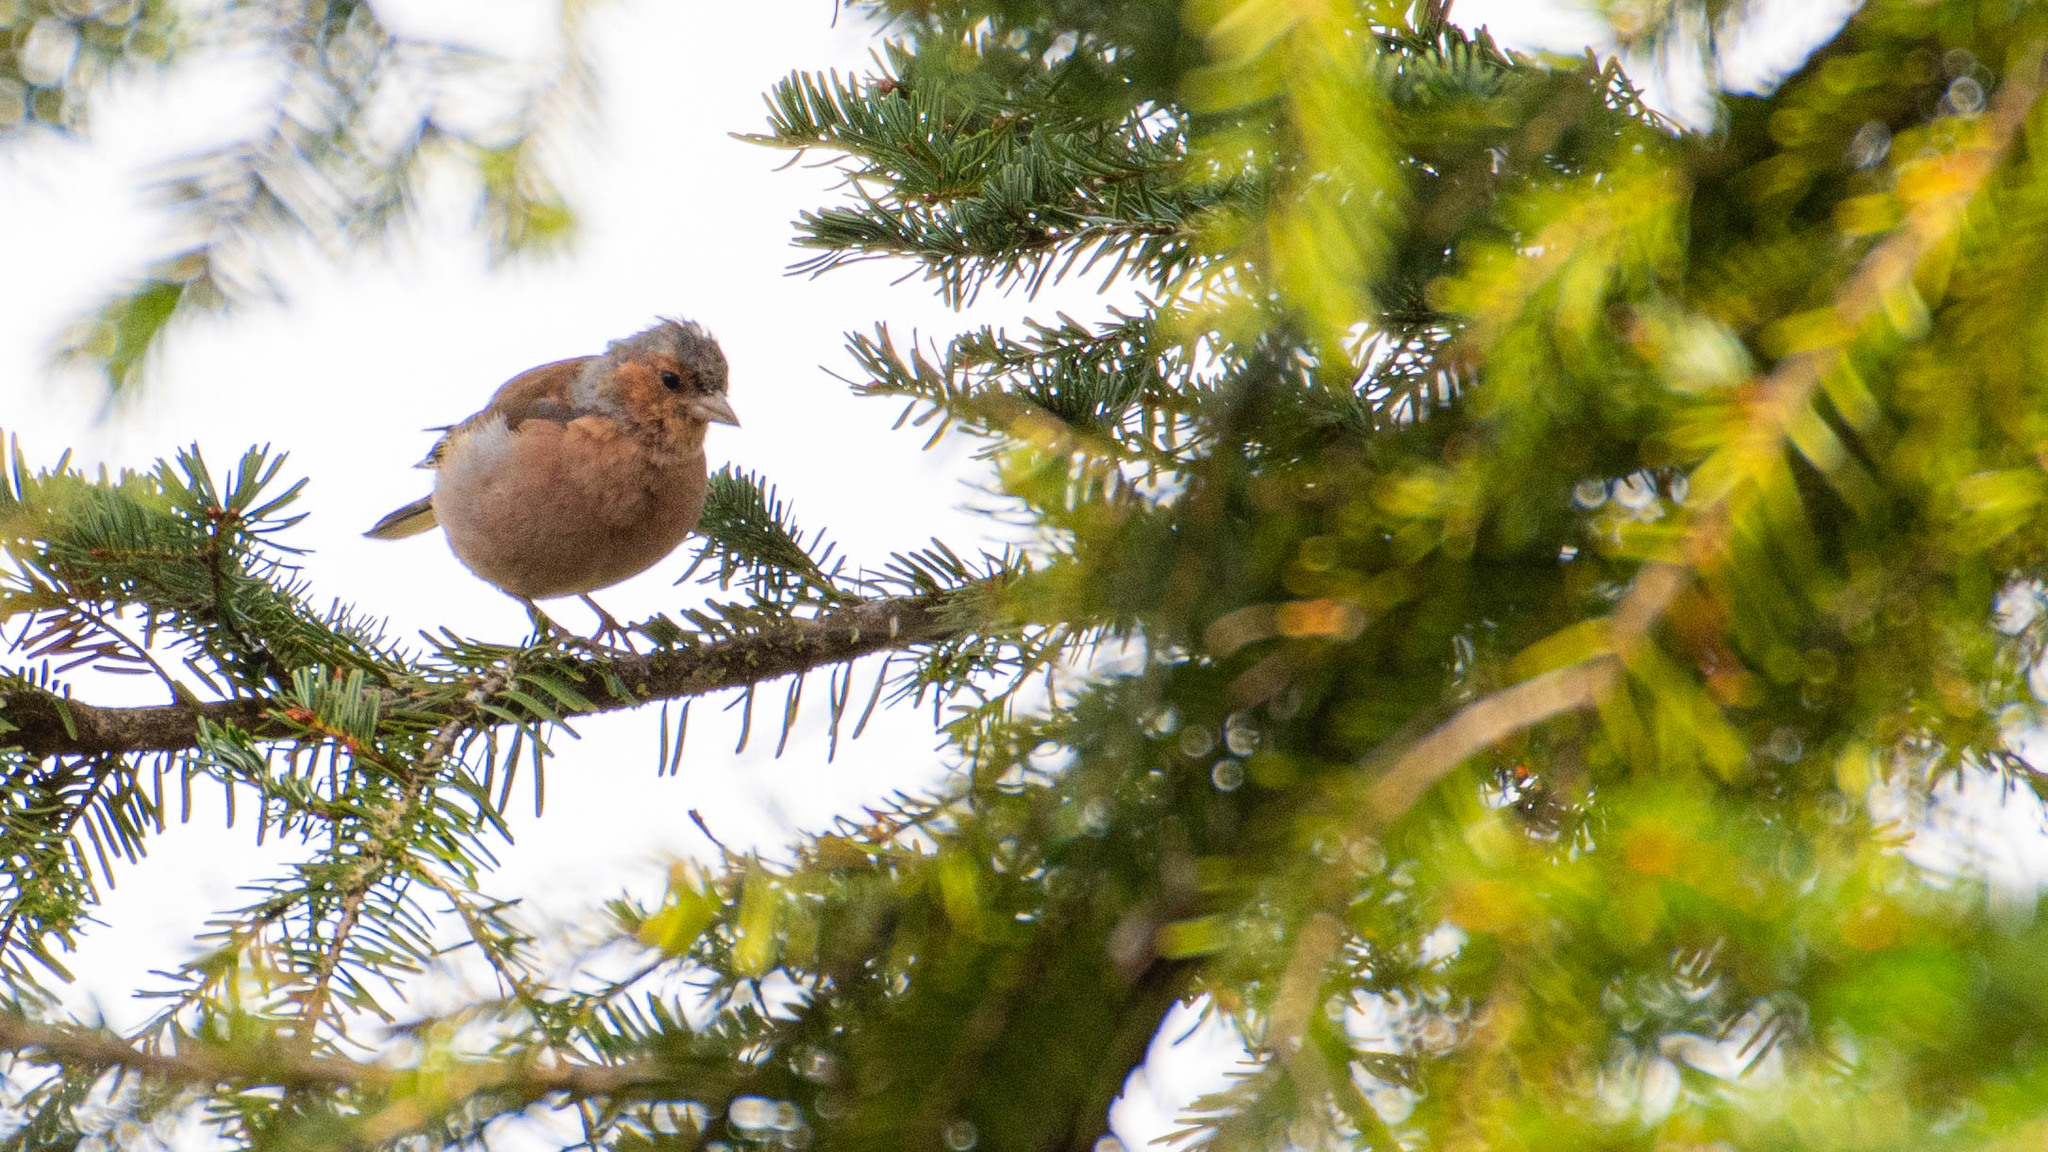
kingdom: Animalia
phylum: Chordata
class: Aves
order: Passeriformes
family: Fringillidae
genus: Fringilla
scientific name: Fringilla coelebs
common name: Common chaffinch
